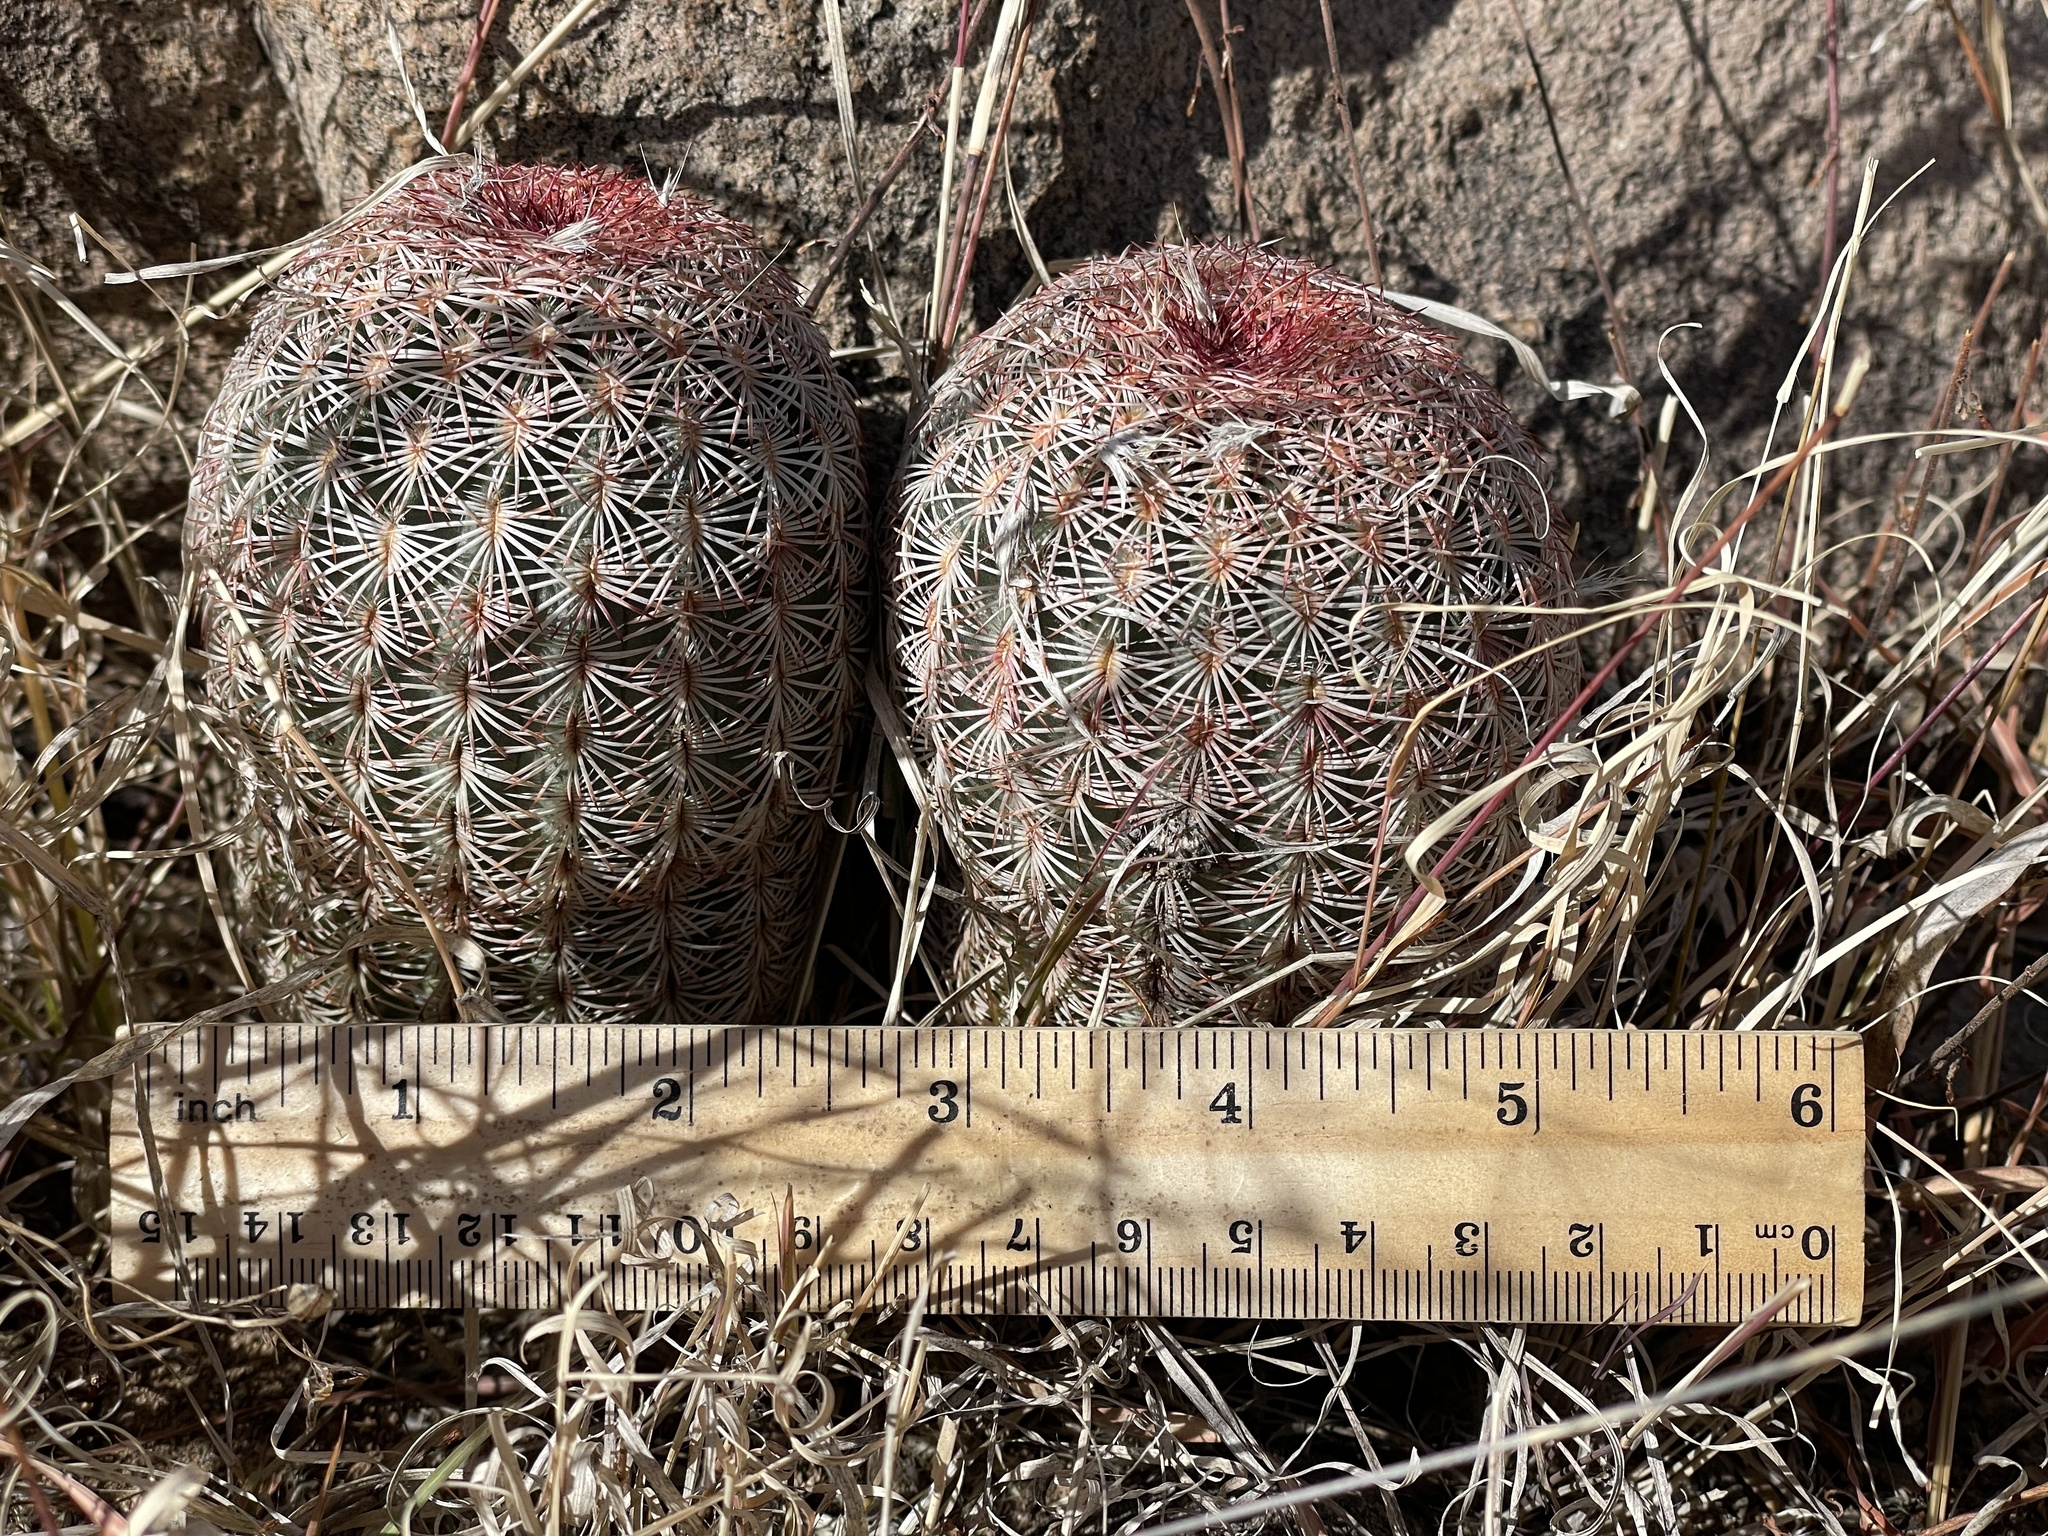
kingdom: Plantae
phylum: Tracheophyta
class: Magnoliopsida
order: Caryophyllales
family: Cactaceae
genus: Echinocereus
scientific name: Echinocereus rigidissimus
